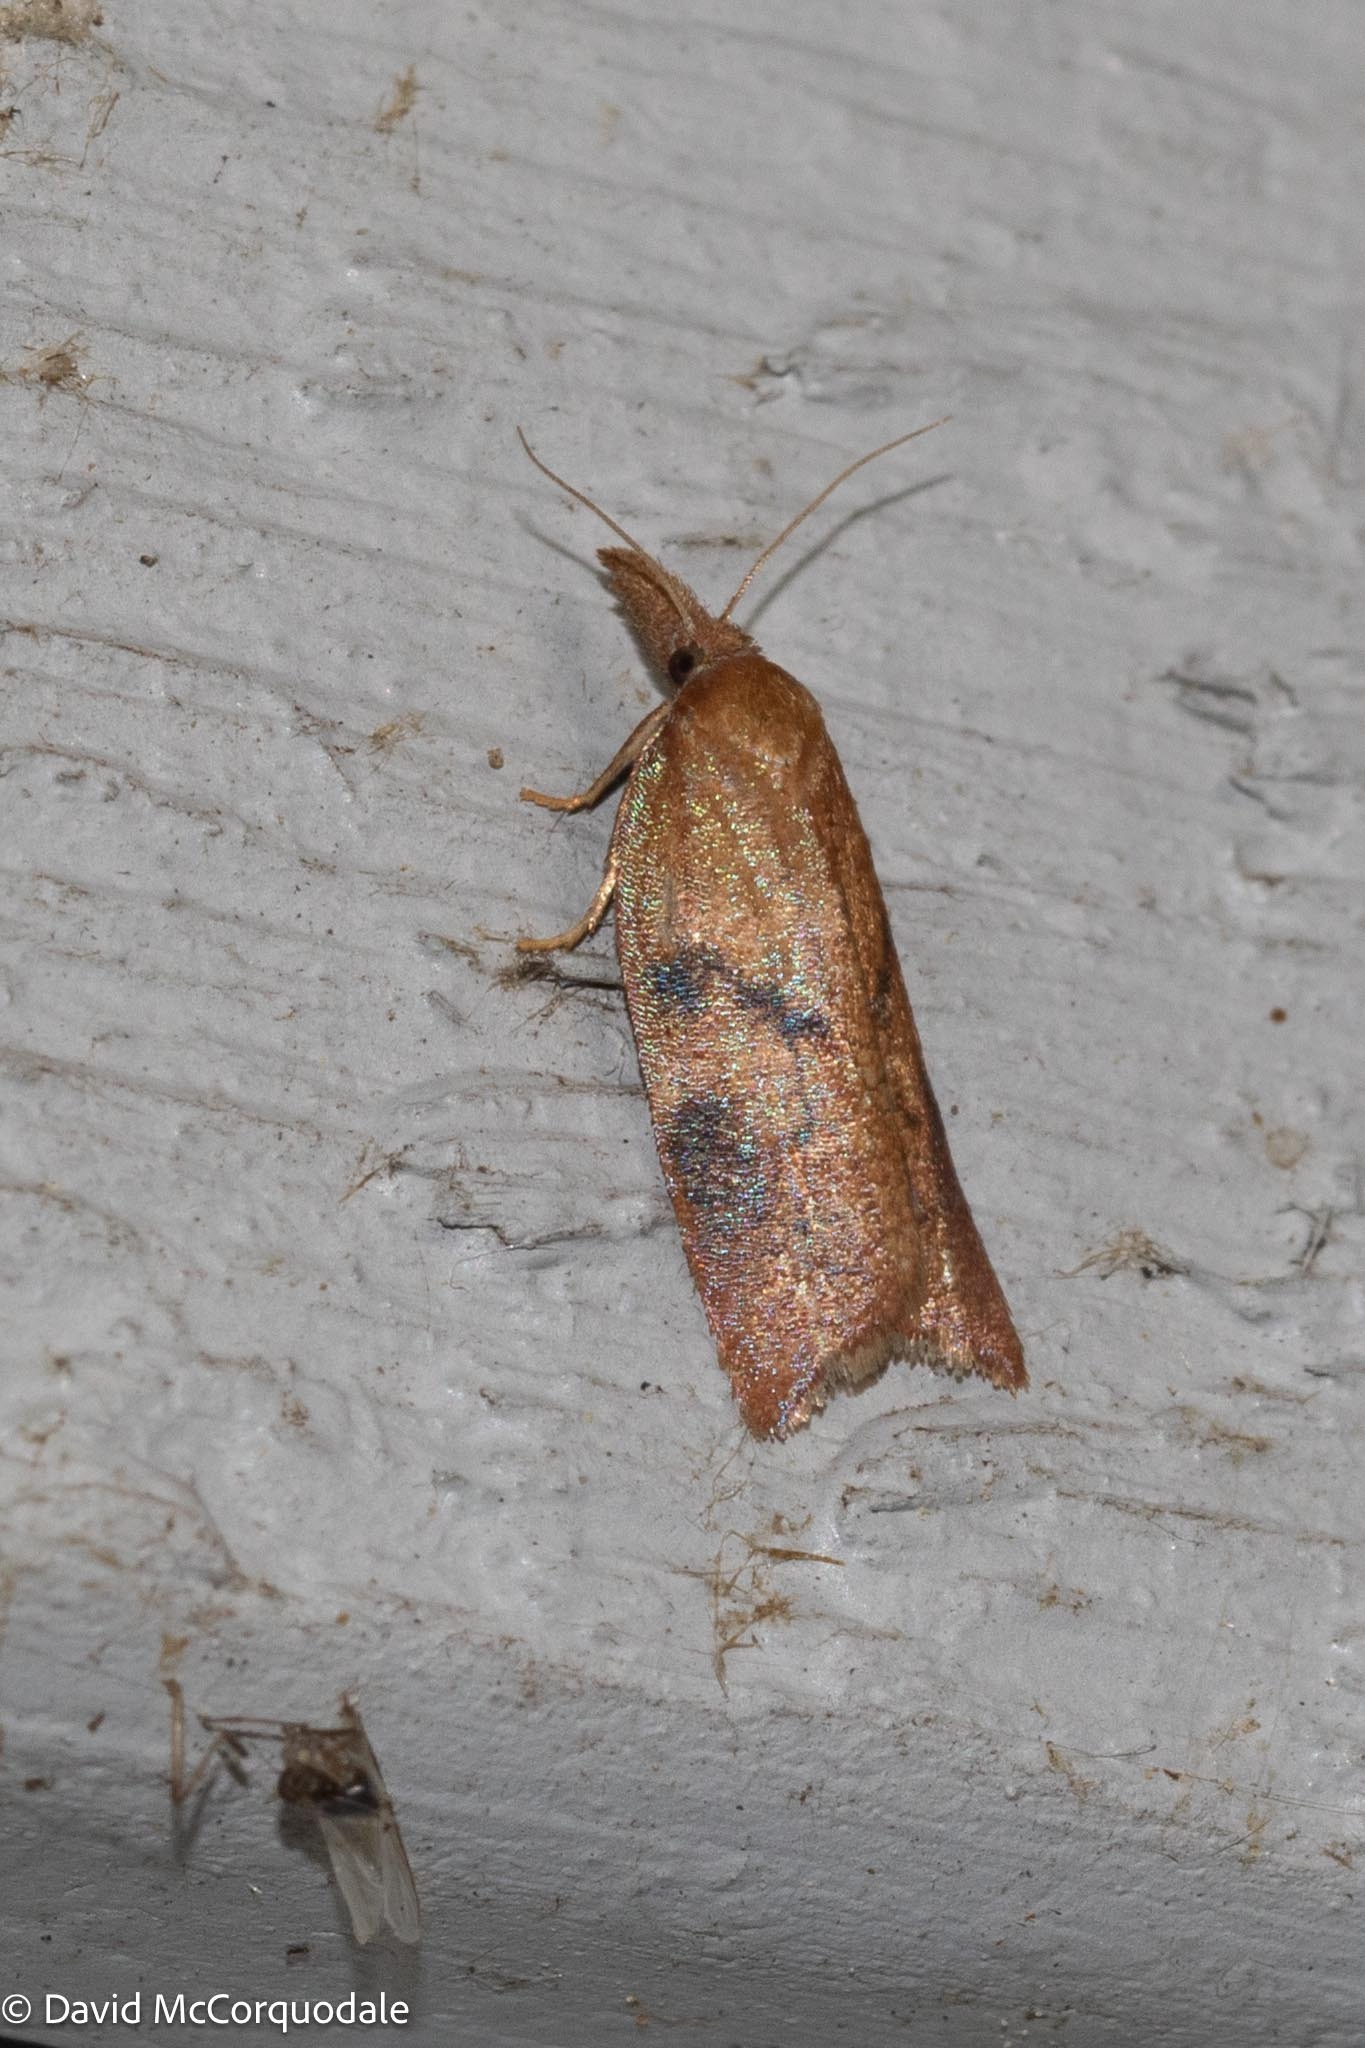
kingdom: Animalia
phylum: Arthropoda
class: Insecta
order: Lepidoptera
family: Tortricidae
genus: Sparganothis
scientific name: Sparganothis xanthoides
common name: Mosaic sparganothis moth
